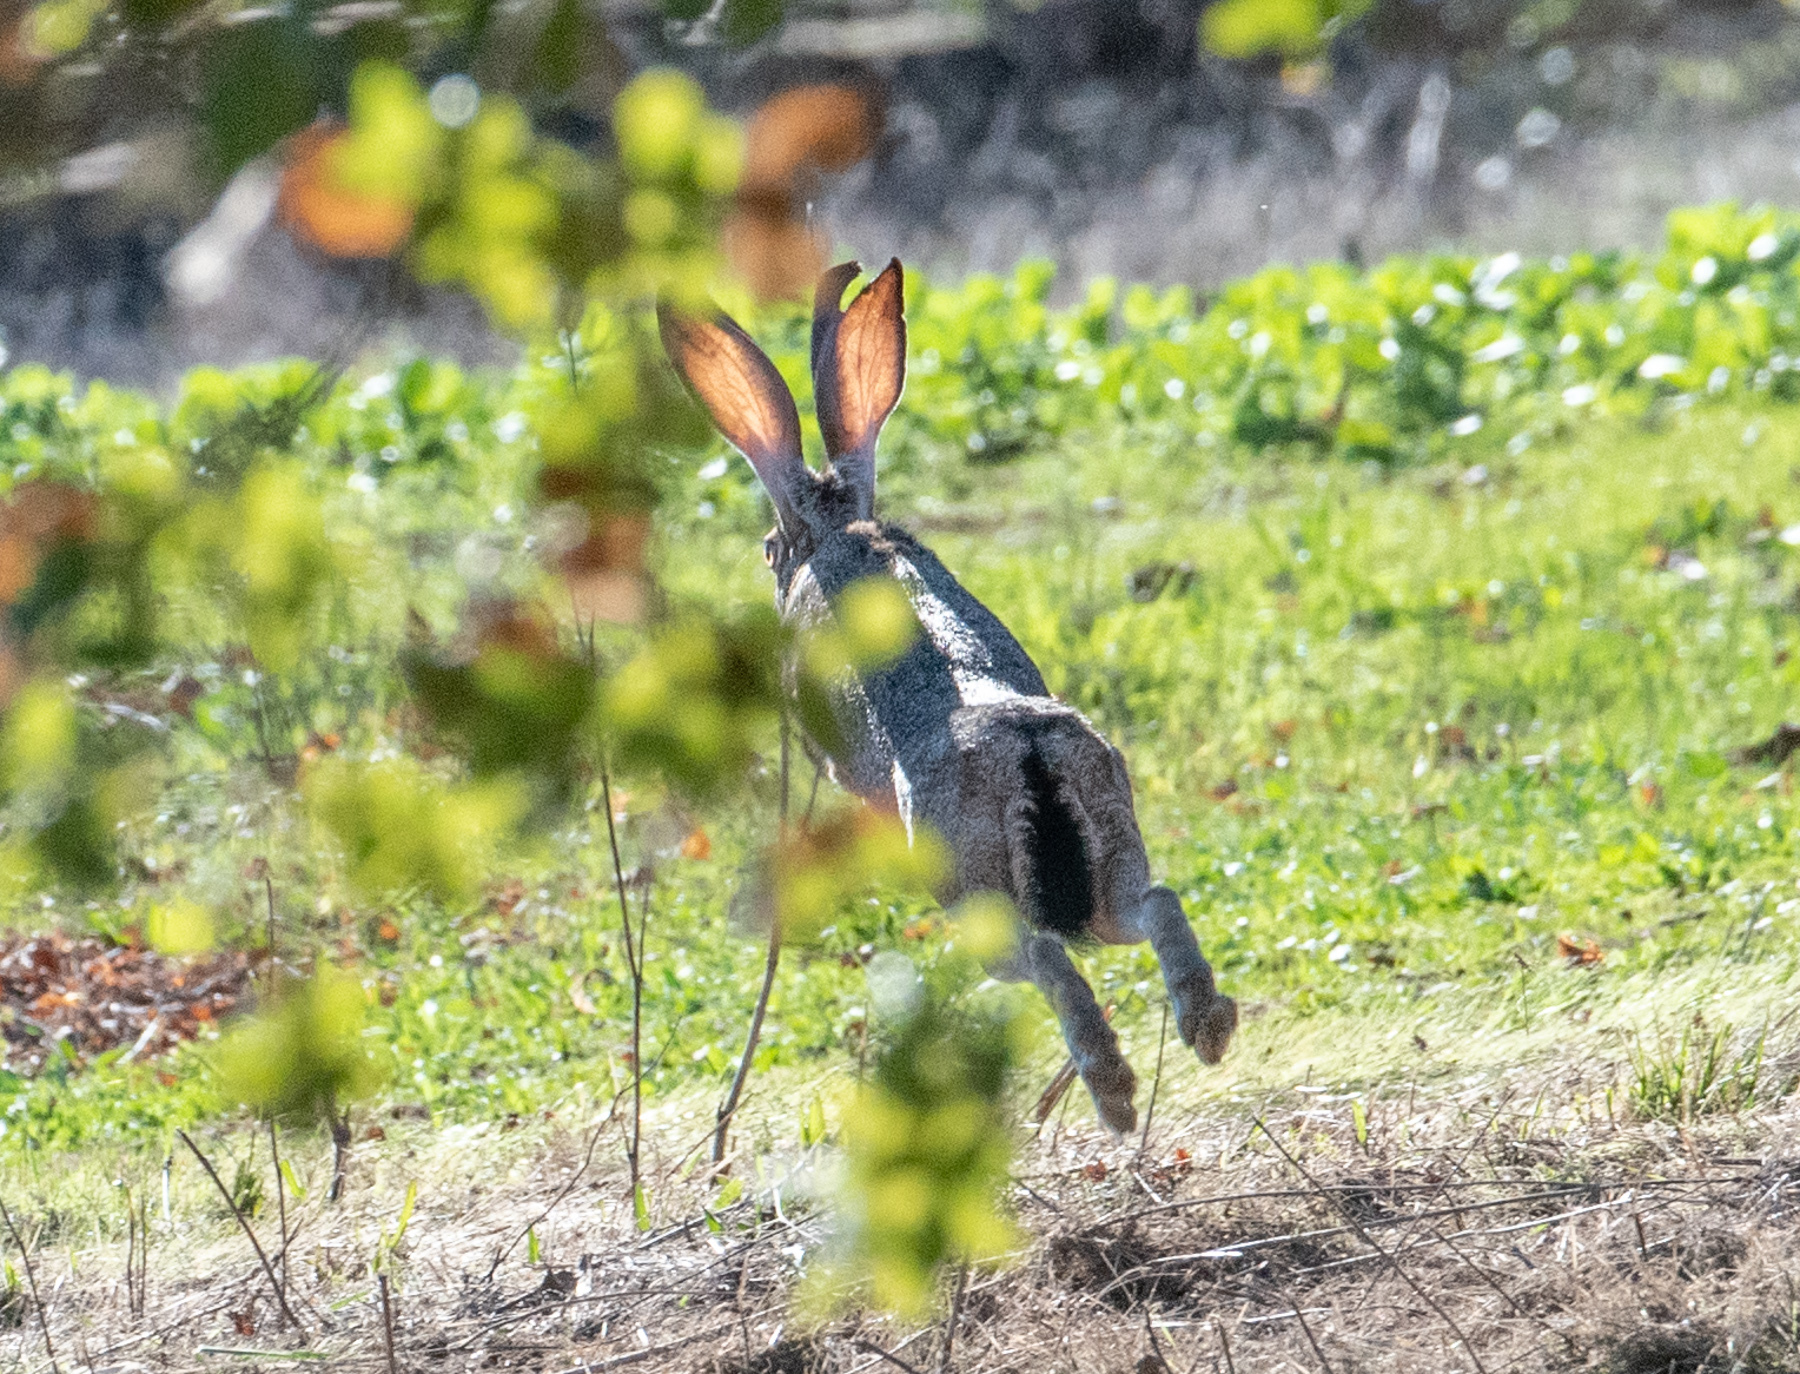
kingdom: Animalia
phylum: Chordata
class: Mammalia
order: Lagomorpha
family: Leporidae
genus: Lepus
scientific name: Lepus californicus
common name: Black-tailed jackrabbit
